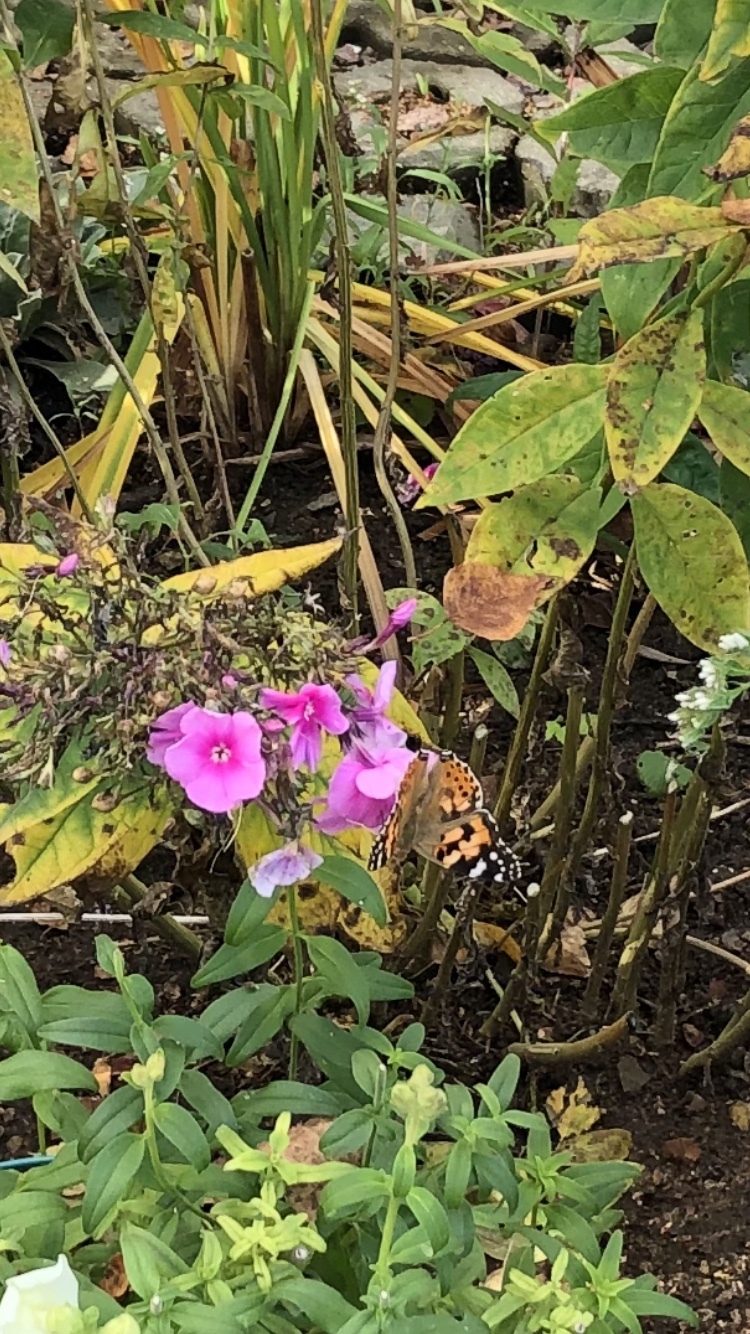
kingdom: Animalia
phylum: Arthropoda
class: Insecta
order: Lepidoptera
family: Nymphalidae
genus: Vanessa
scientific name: Vanessa cardui
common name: Painted lady
